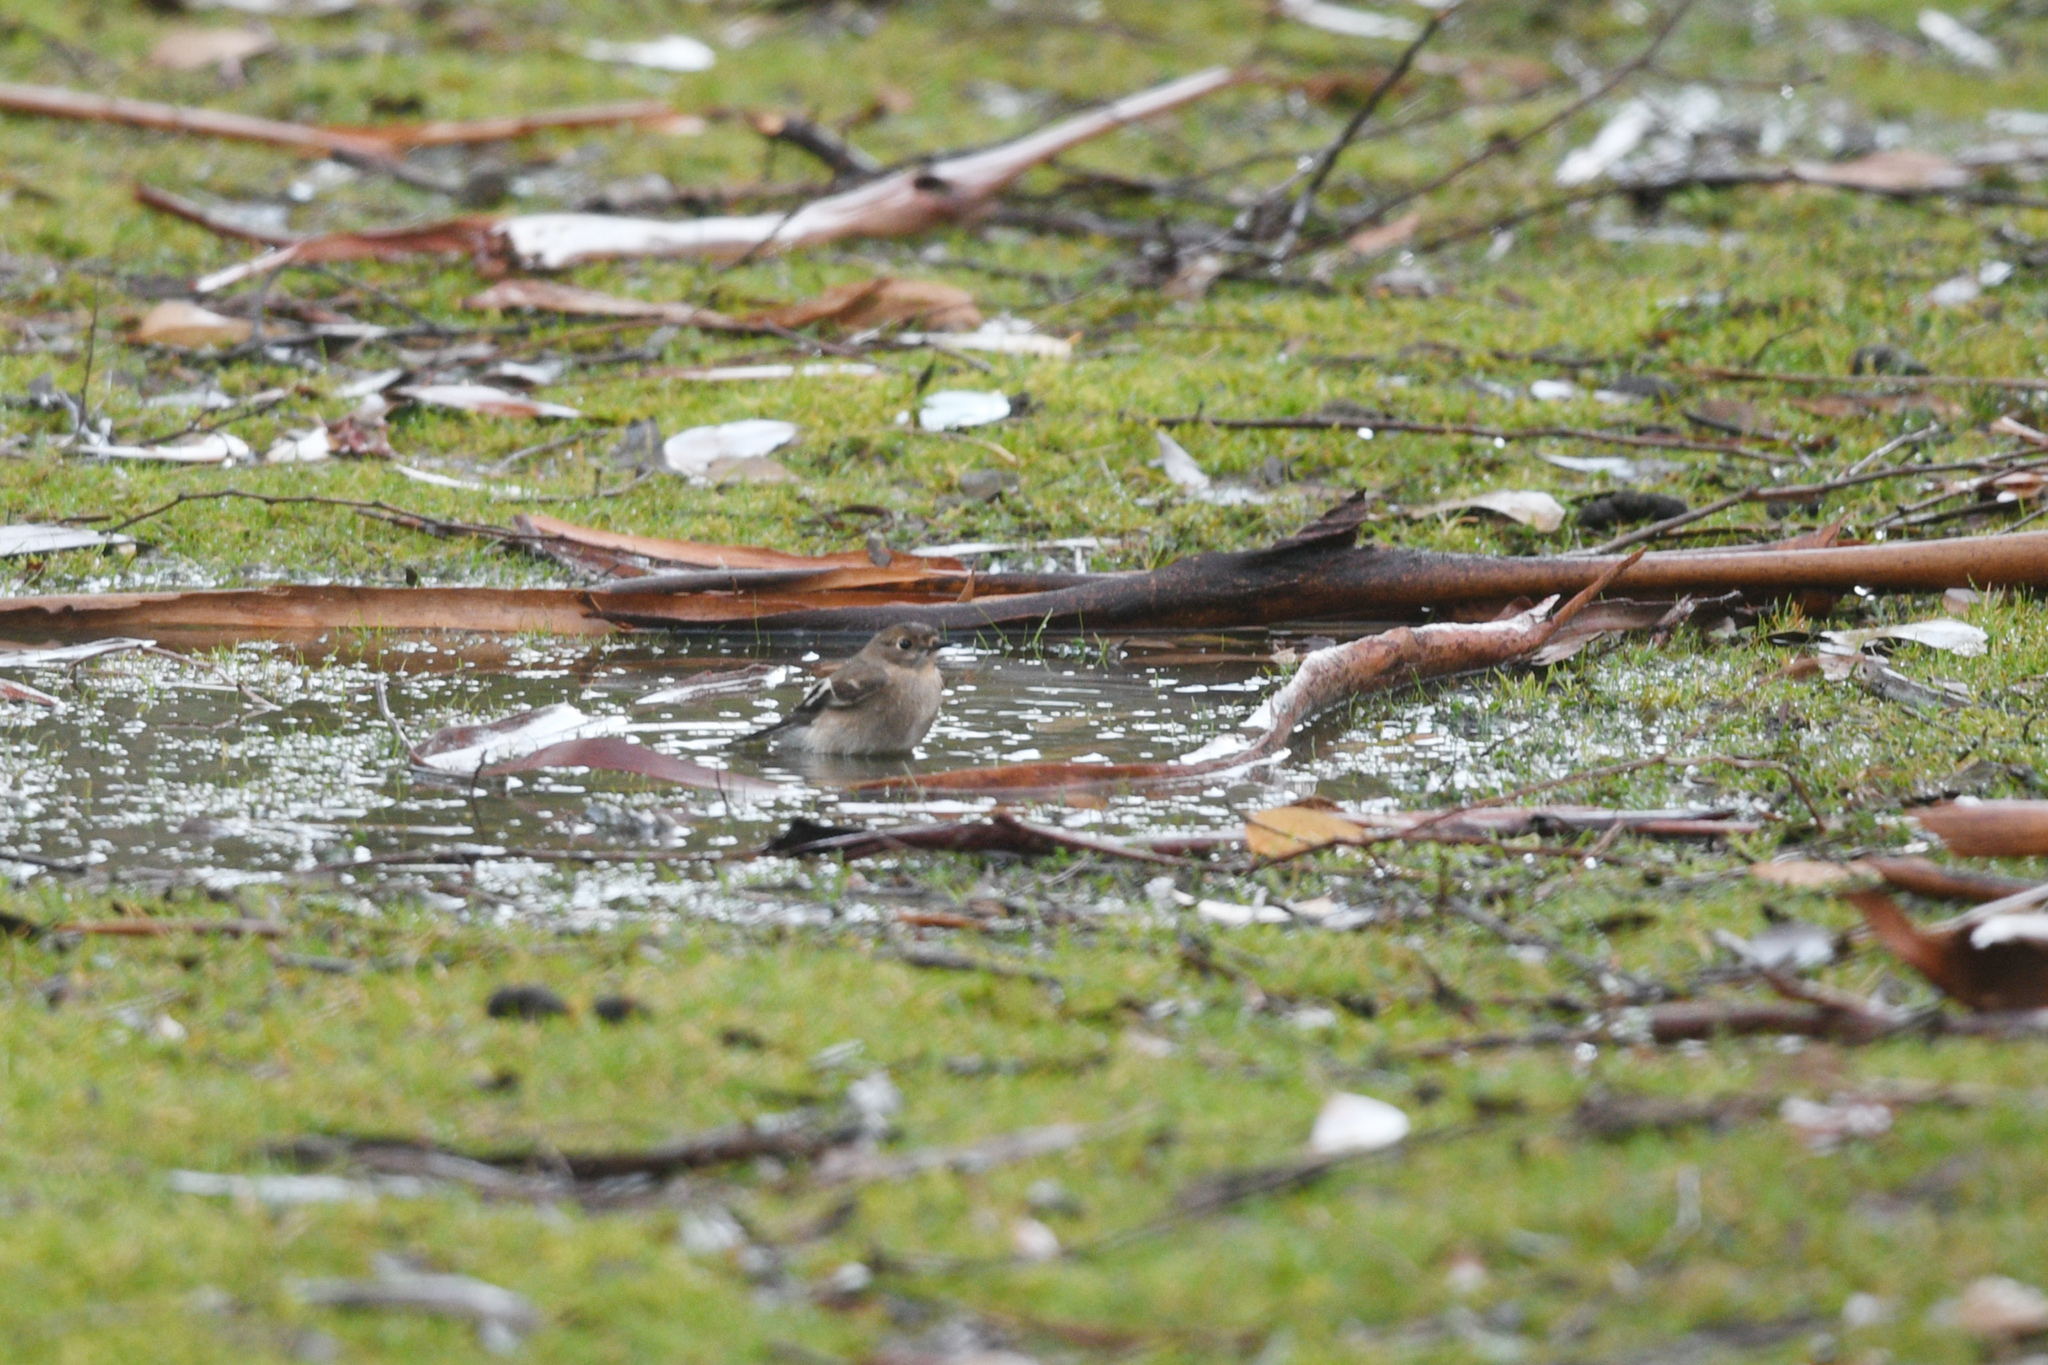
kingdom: Animalia
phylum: Chordata
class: Aves
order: Passeriformes
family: Petroicidae
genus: Petroica
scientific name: Petroica phoenicea
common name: Flame robin
